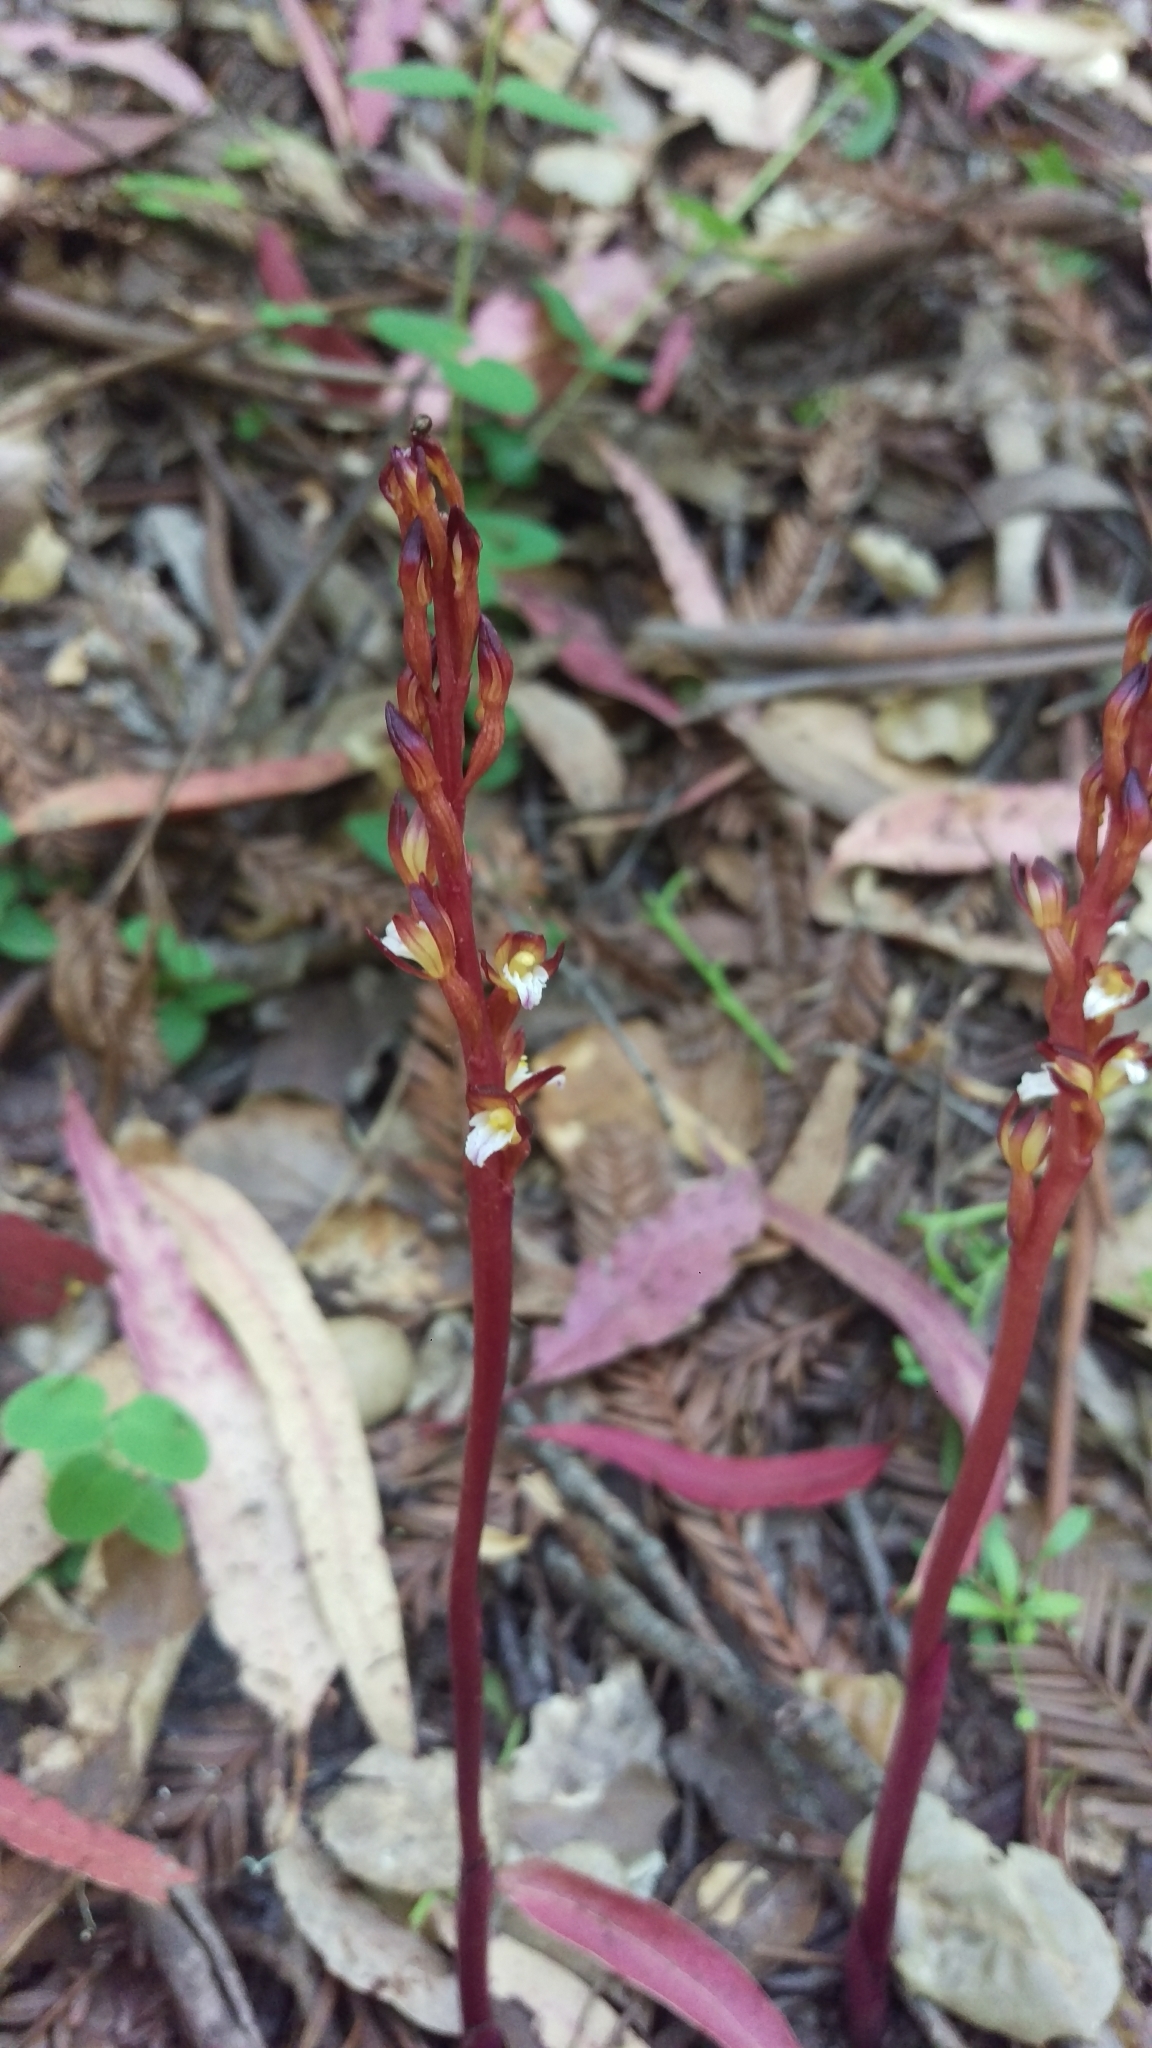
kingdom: Plantae
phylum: Tracheophyta
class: Liliopsida
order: Asparagales
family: Orchidaceae
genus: Corallorhiza
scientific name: Corallorhiza maculata
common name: Spotted coralroot
